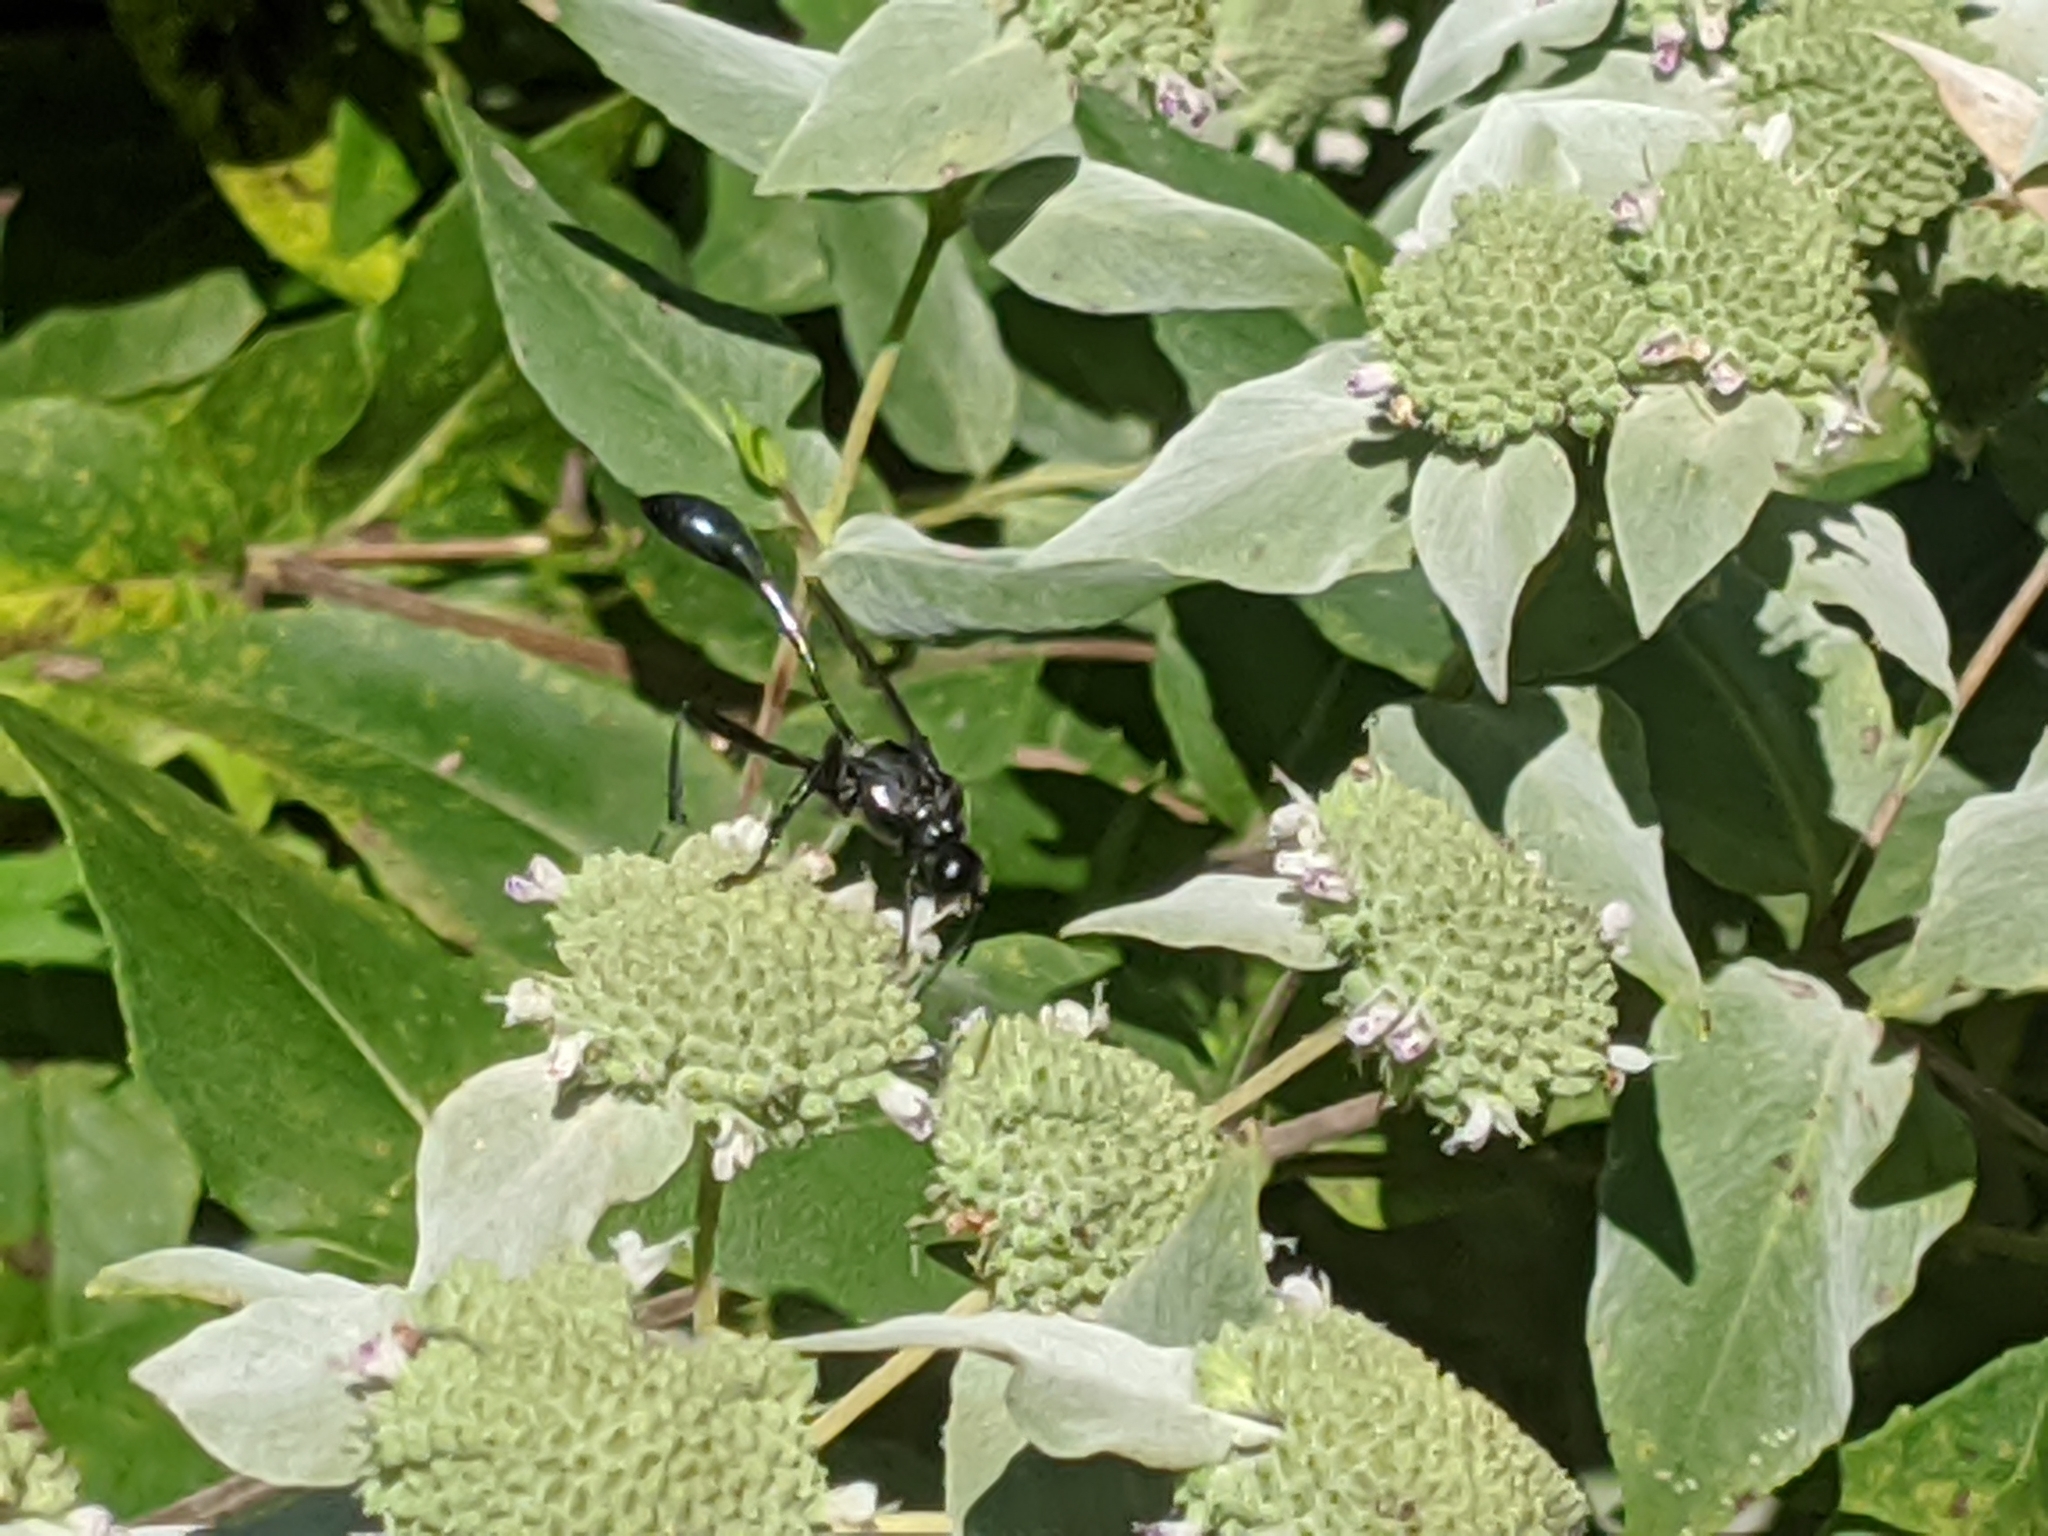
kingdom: Animalia
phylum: Arthropoda
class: Insecta
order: Hymenoptera
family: Sphecidae
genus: Eremnophila
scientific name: Eremnophila aureonotata
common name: Gold-marked thread-waisted wasp
